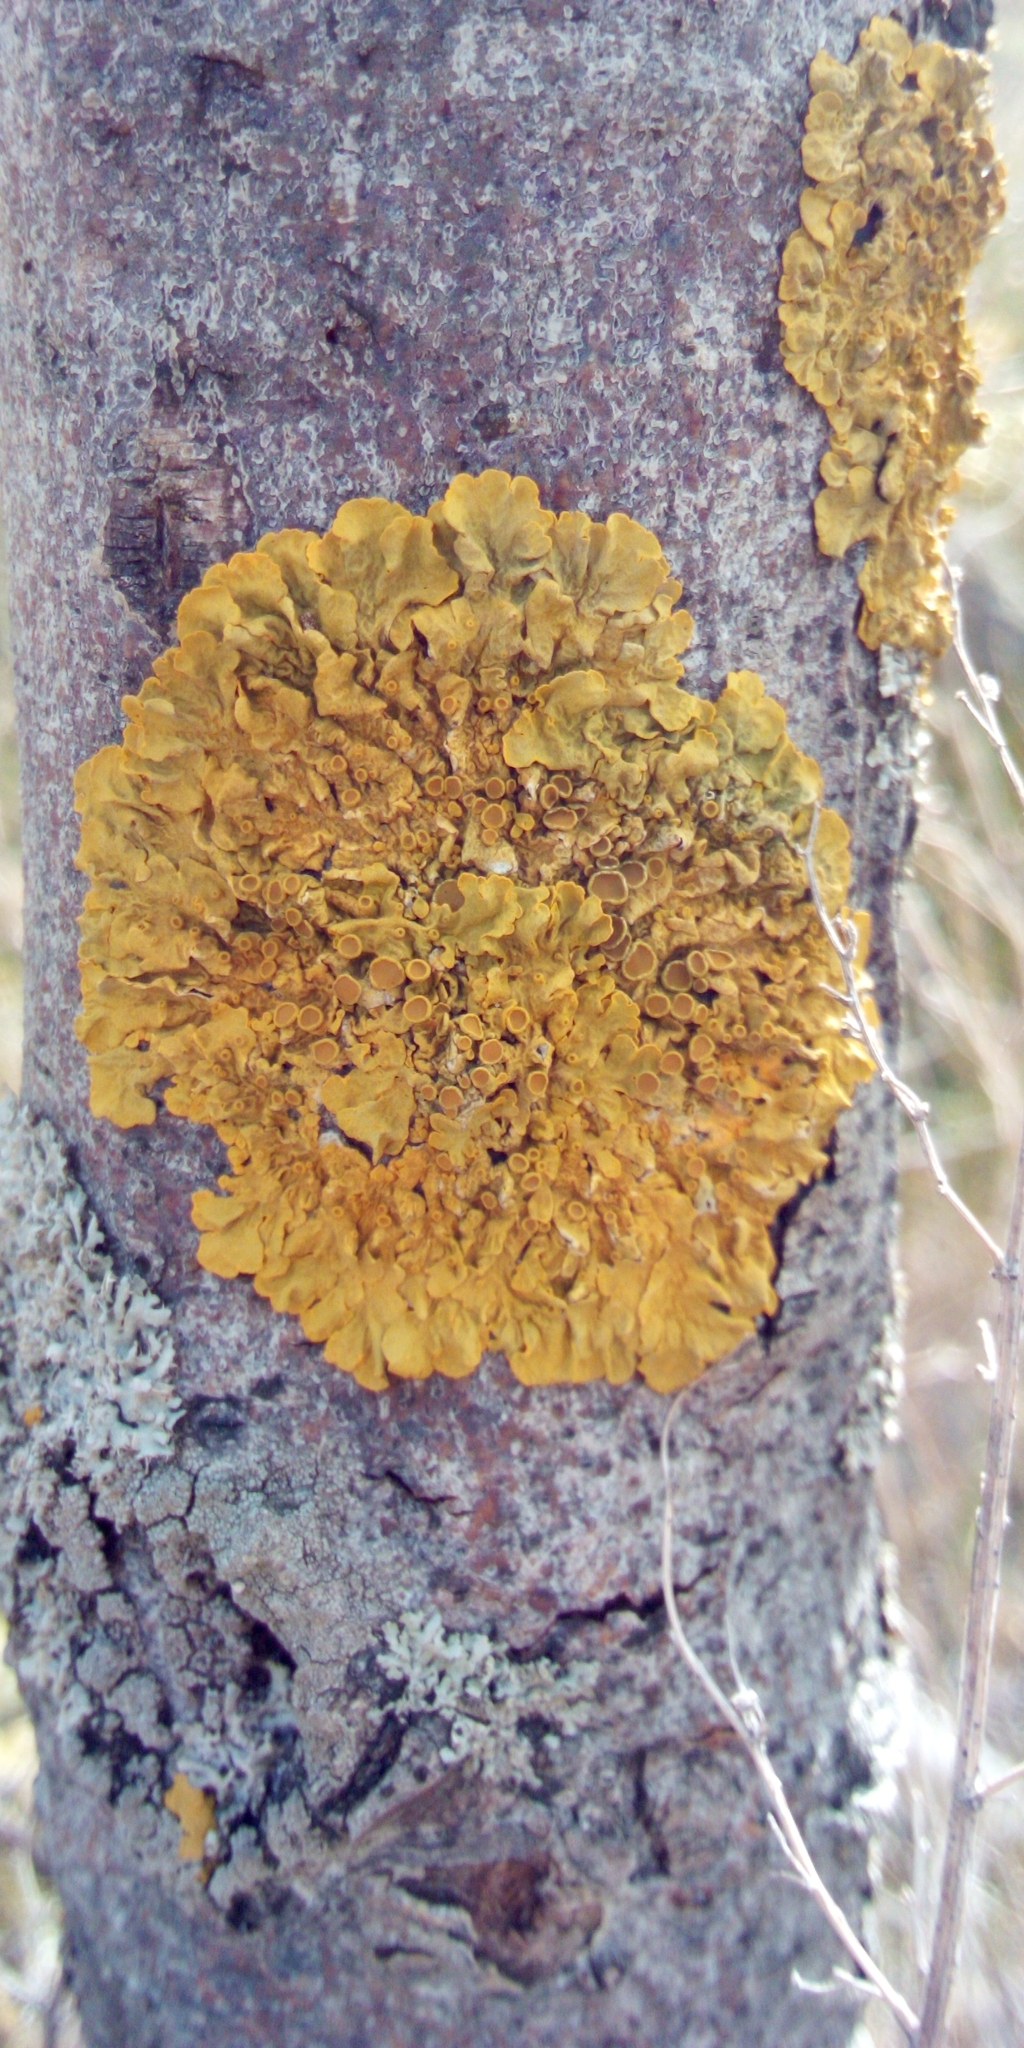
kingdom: Fungi
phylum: Ascomycota
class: Lecanoromycetes
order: Teloschistales
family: Teloschistaceae
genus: Xanthoria
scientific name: Xanthoria parietina
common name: Common orange lichen
